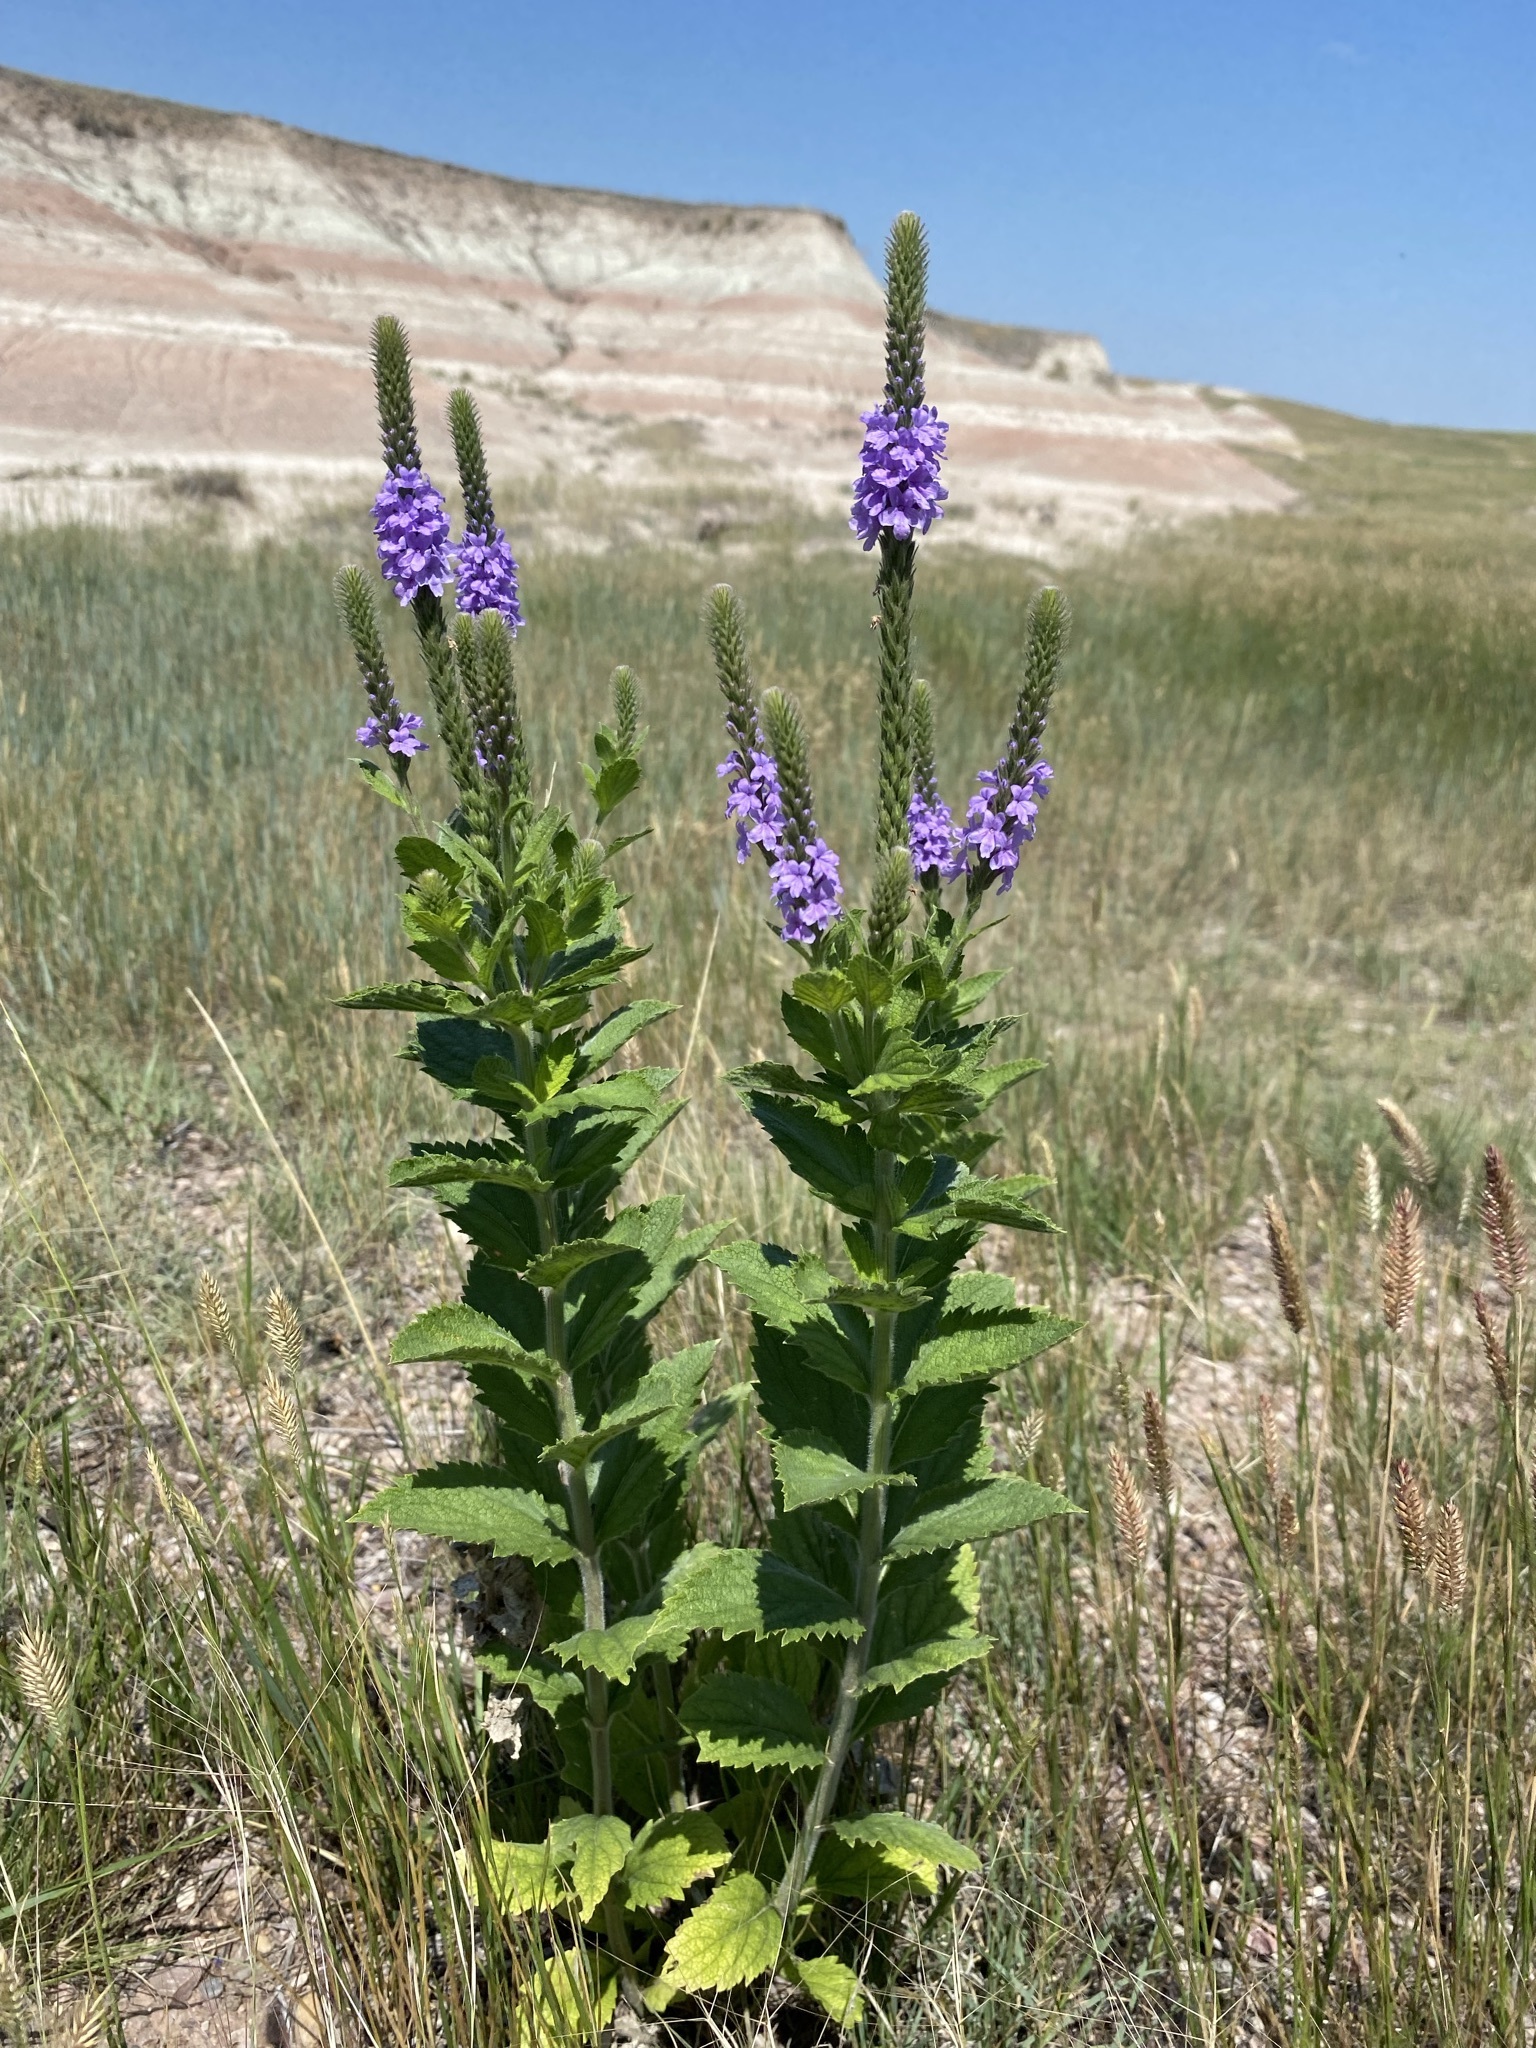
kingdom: Plantae
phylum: Tracheophyta
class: Magnoliopsida
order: Lamiales
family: Verbenaceae
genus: Verbena
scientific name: Verbena stricta
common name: Hoary vervain
